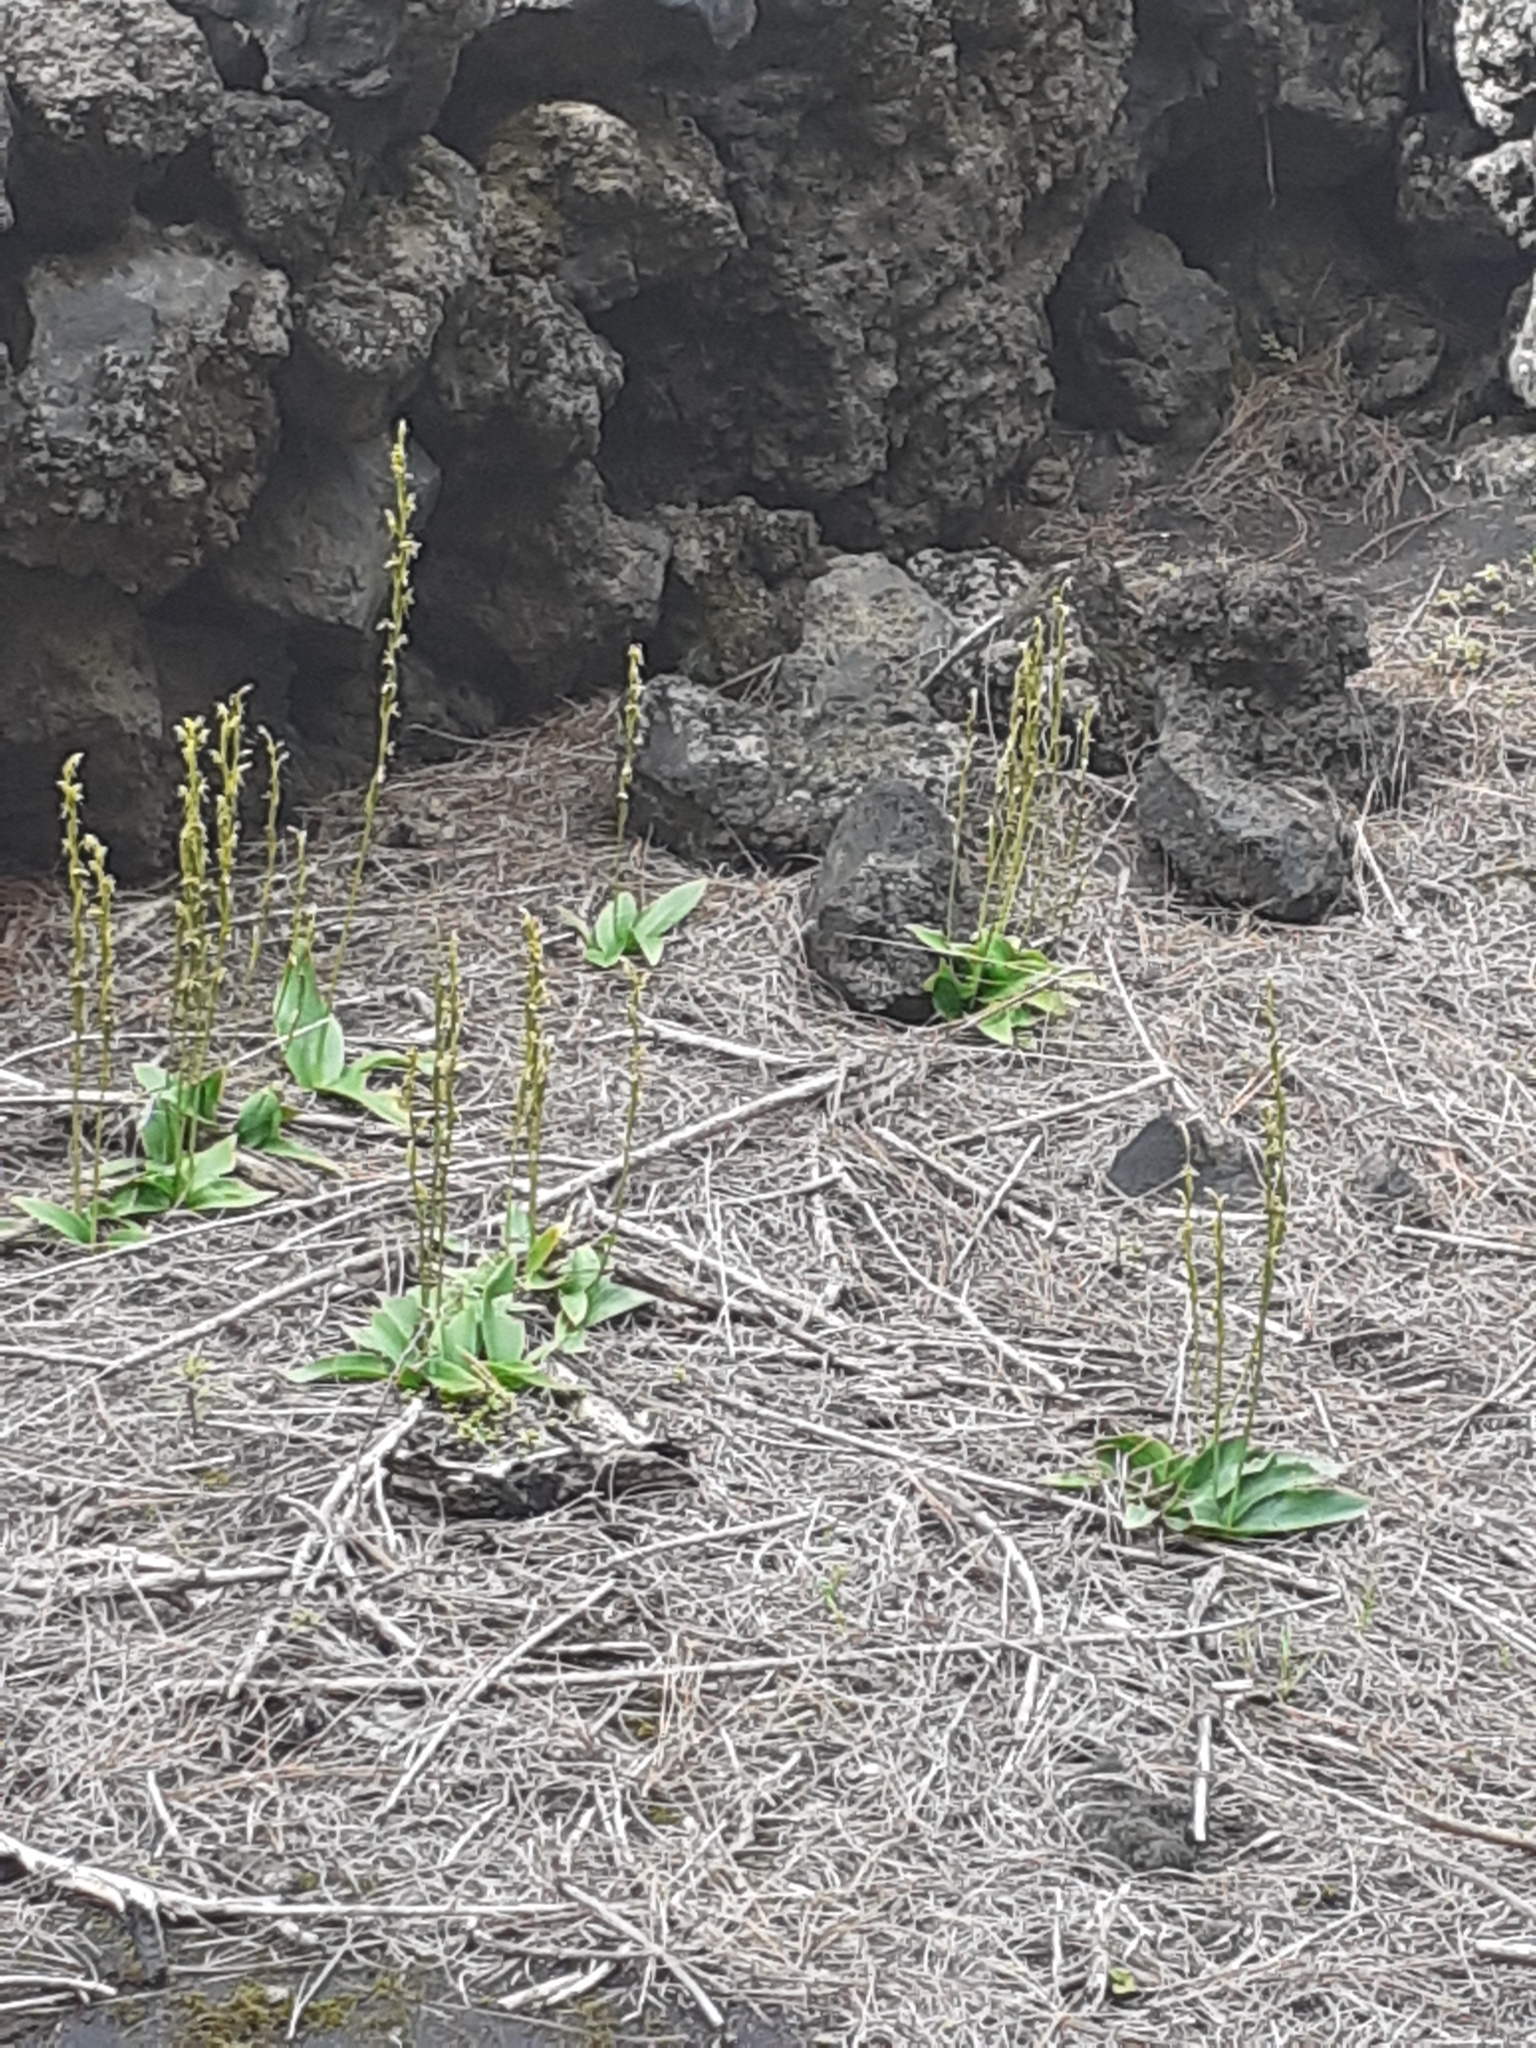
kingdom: Plantae
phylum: Tracheophyta
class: Liliopsida
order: Asparagales
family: Orchidaceae
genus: Habenaria
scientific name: Habenaria tridactylites
